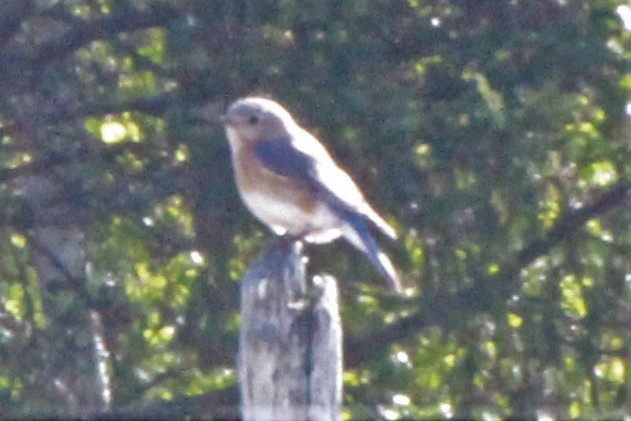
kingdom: Animalia
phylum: Chordata
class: Aves
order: Passeriformes
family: Turdidae
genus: Sialia
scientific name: Sialia sialis
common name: Eastern bluebird
